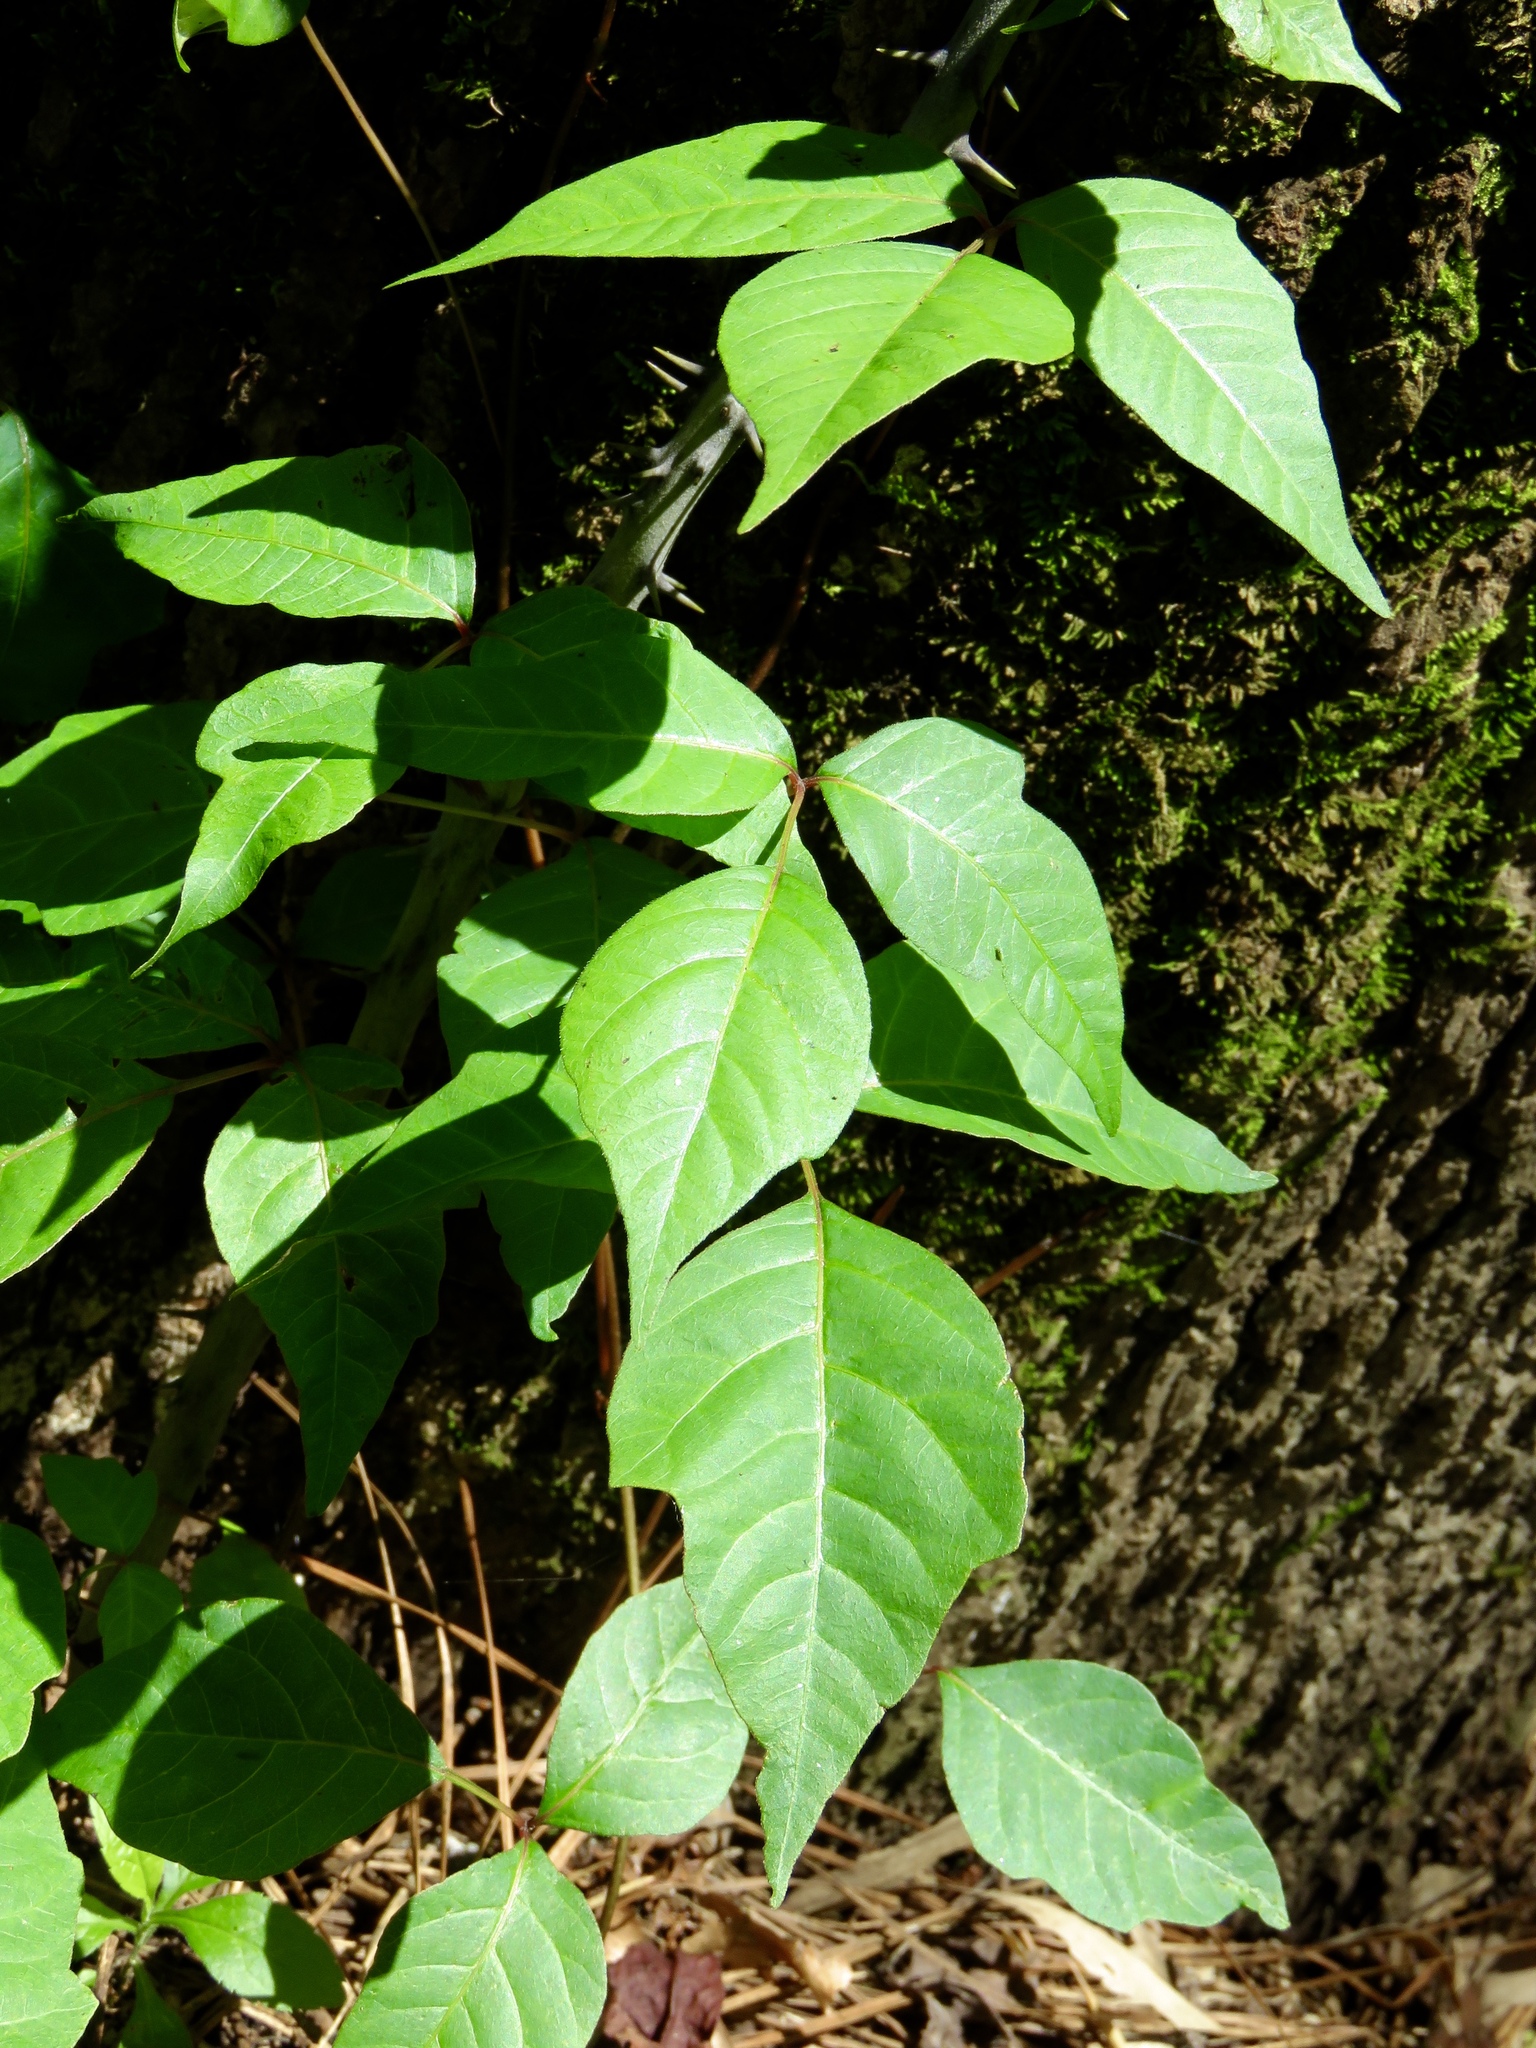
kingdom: Plantae
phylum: Tracheophyta
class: Magnoliopsida
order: Sapindales
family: Anacardiaceae
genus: Toxicodendron
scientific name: Toxicodendron radicans
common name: Poison ivy
